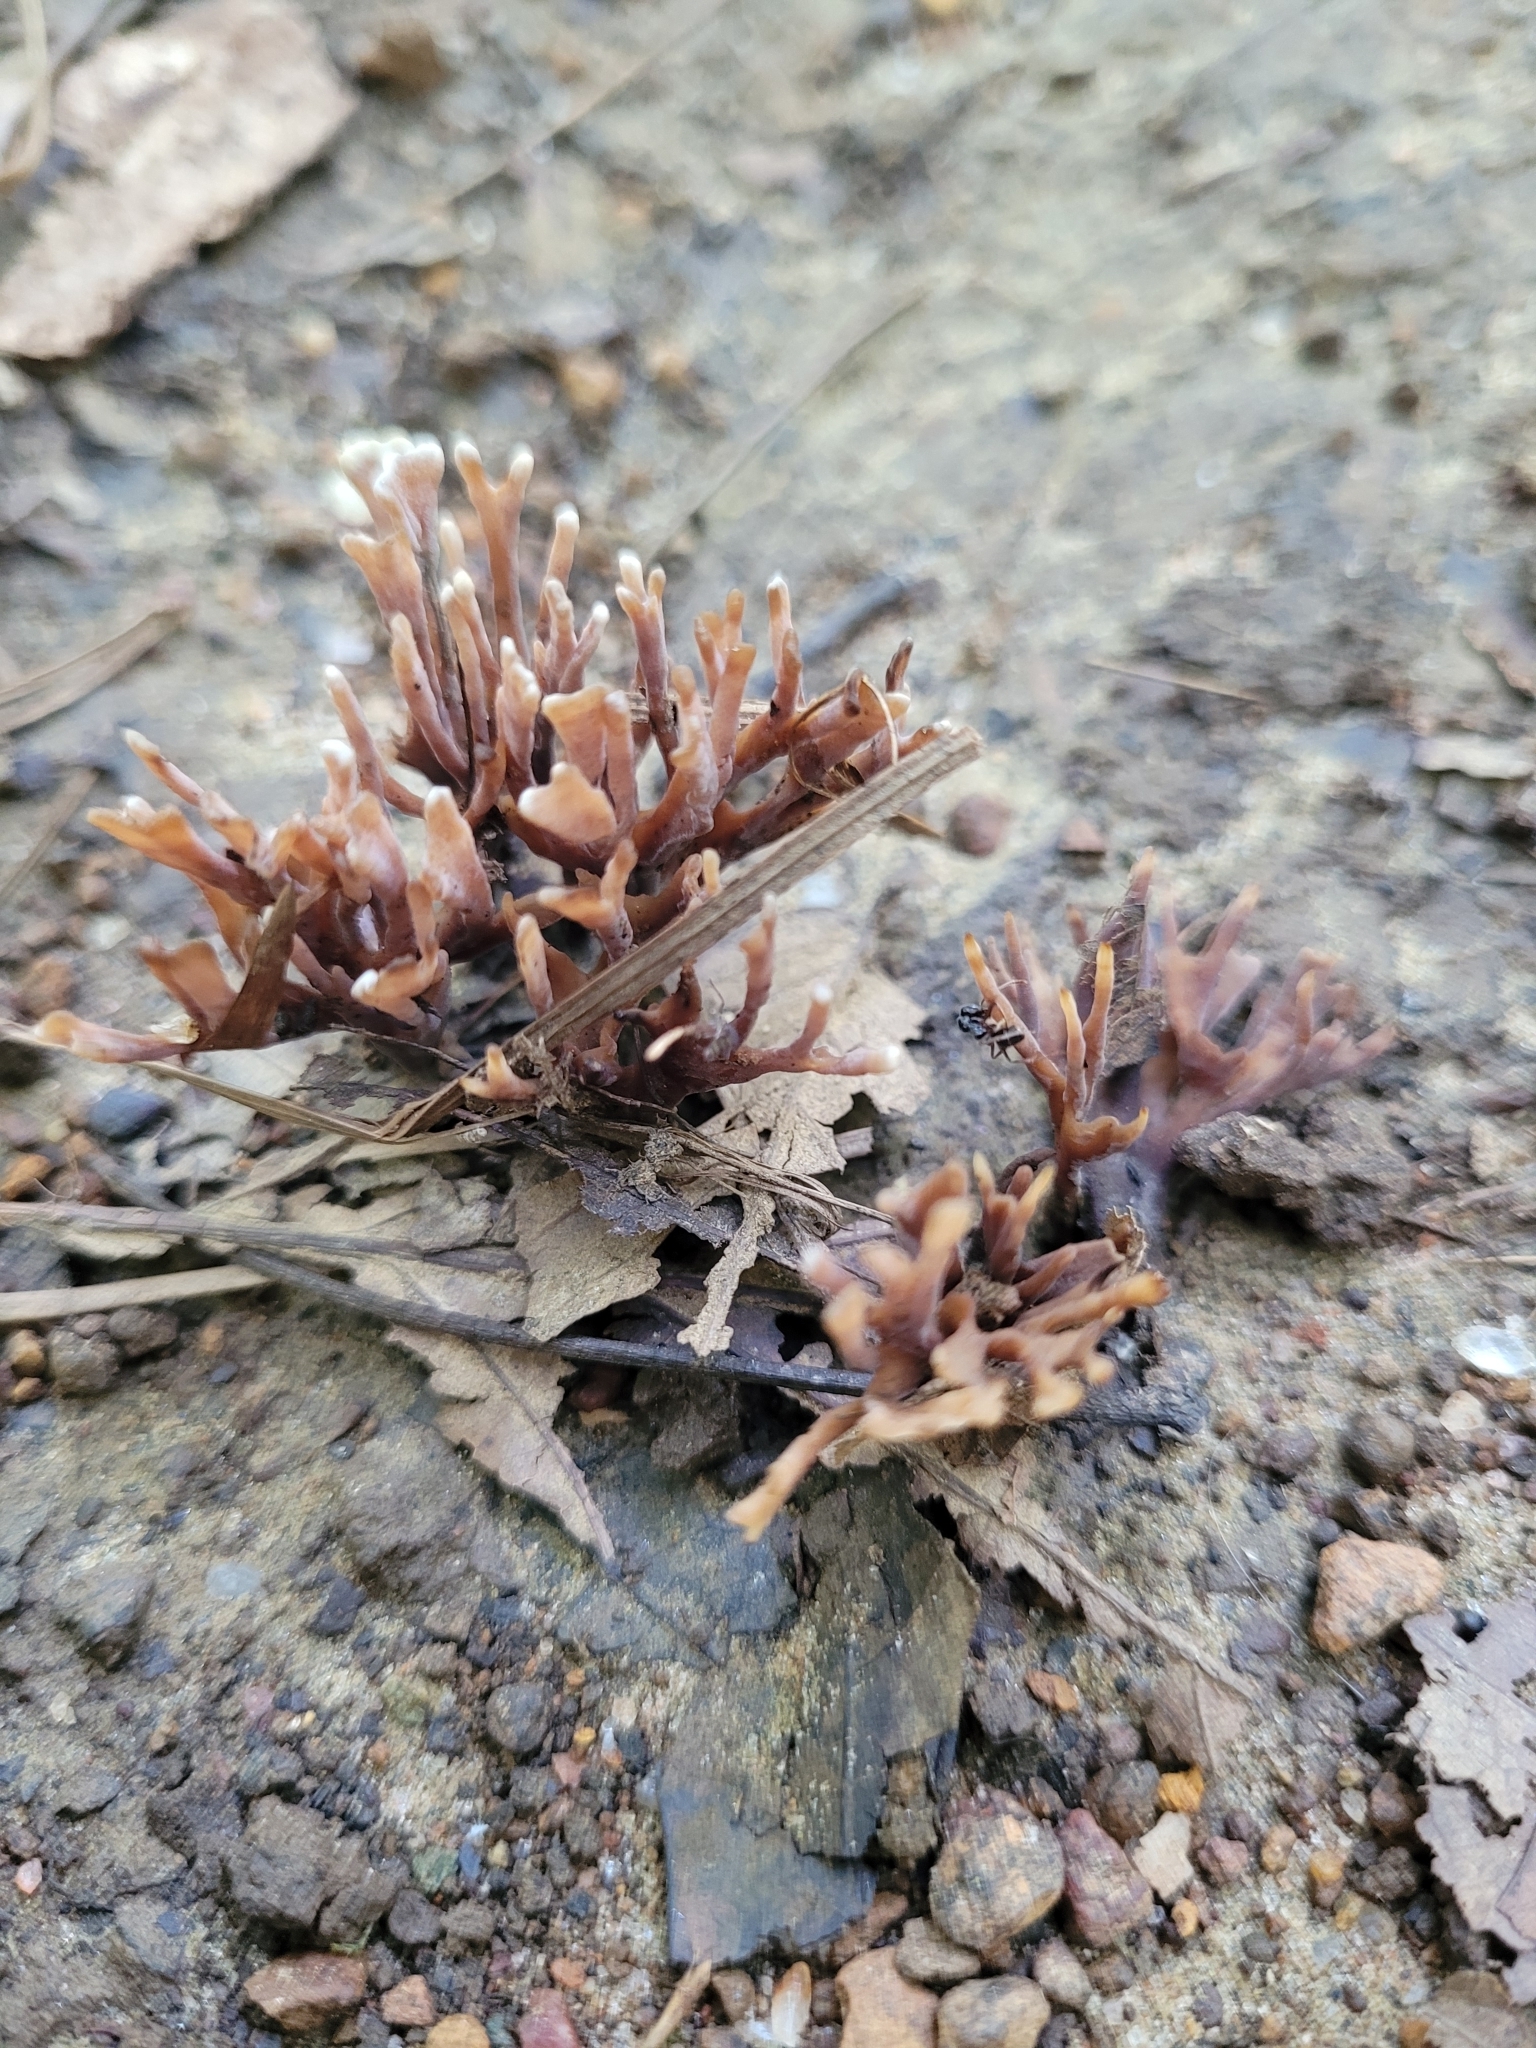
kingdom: Fungi
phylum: Basidiomycota
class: Agaricomycetes
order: Thelephorales
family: Thelephoraceae
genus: Thelephora
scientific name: Thelephora palmata
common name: Stinking earthfan
